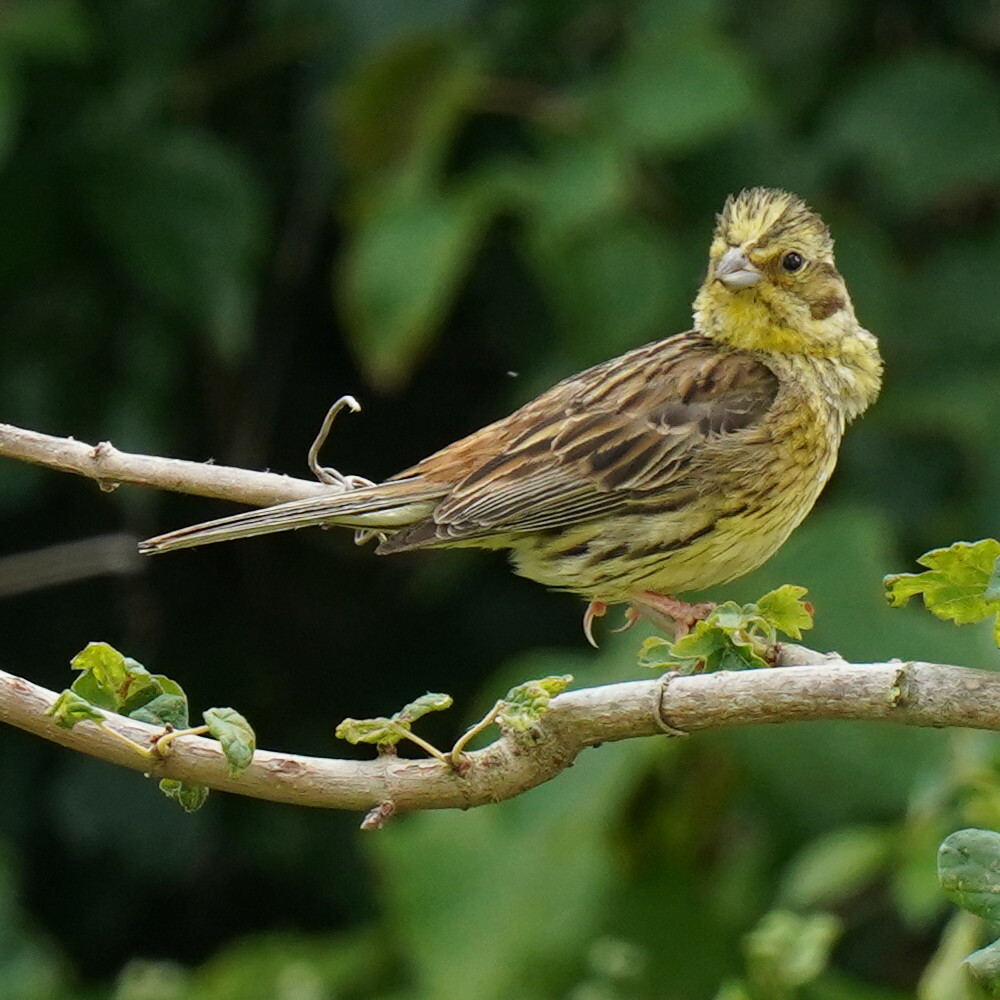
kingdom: Animalia
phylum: Chordata
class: Aves
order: Passeriformes
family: Emberizidae
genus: Emberiza
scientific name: Emberiza citrinella
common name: Yellowhammer
